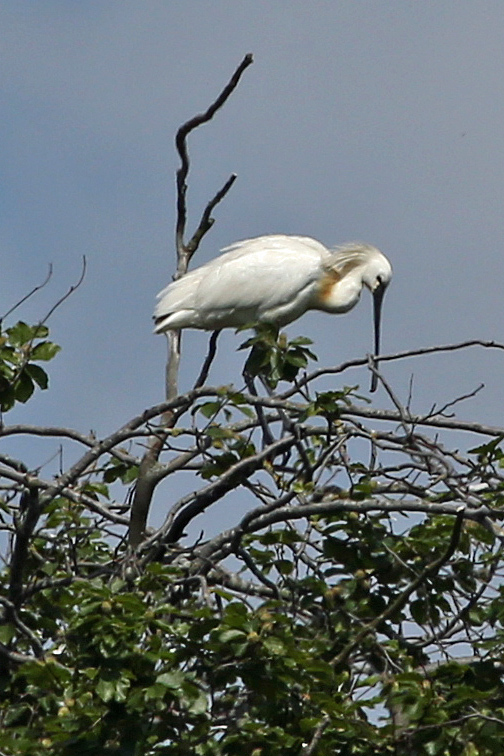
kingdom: Animalia
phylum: Chordata
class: Aves
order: Pelecaniformes
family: Threskiornithidae
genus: Platalea
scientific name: Platalea leucorodia
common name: Eurasian spoonbill
